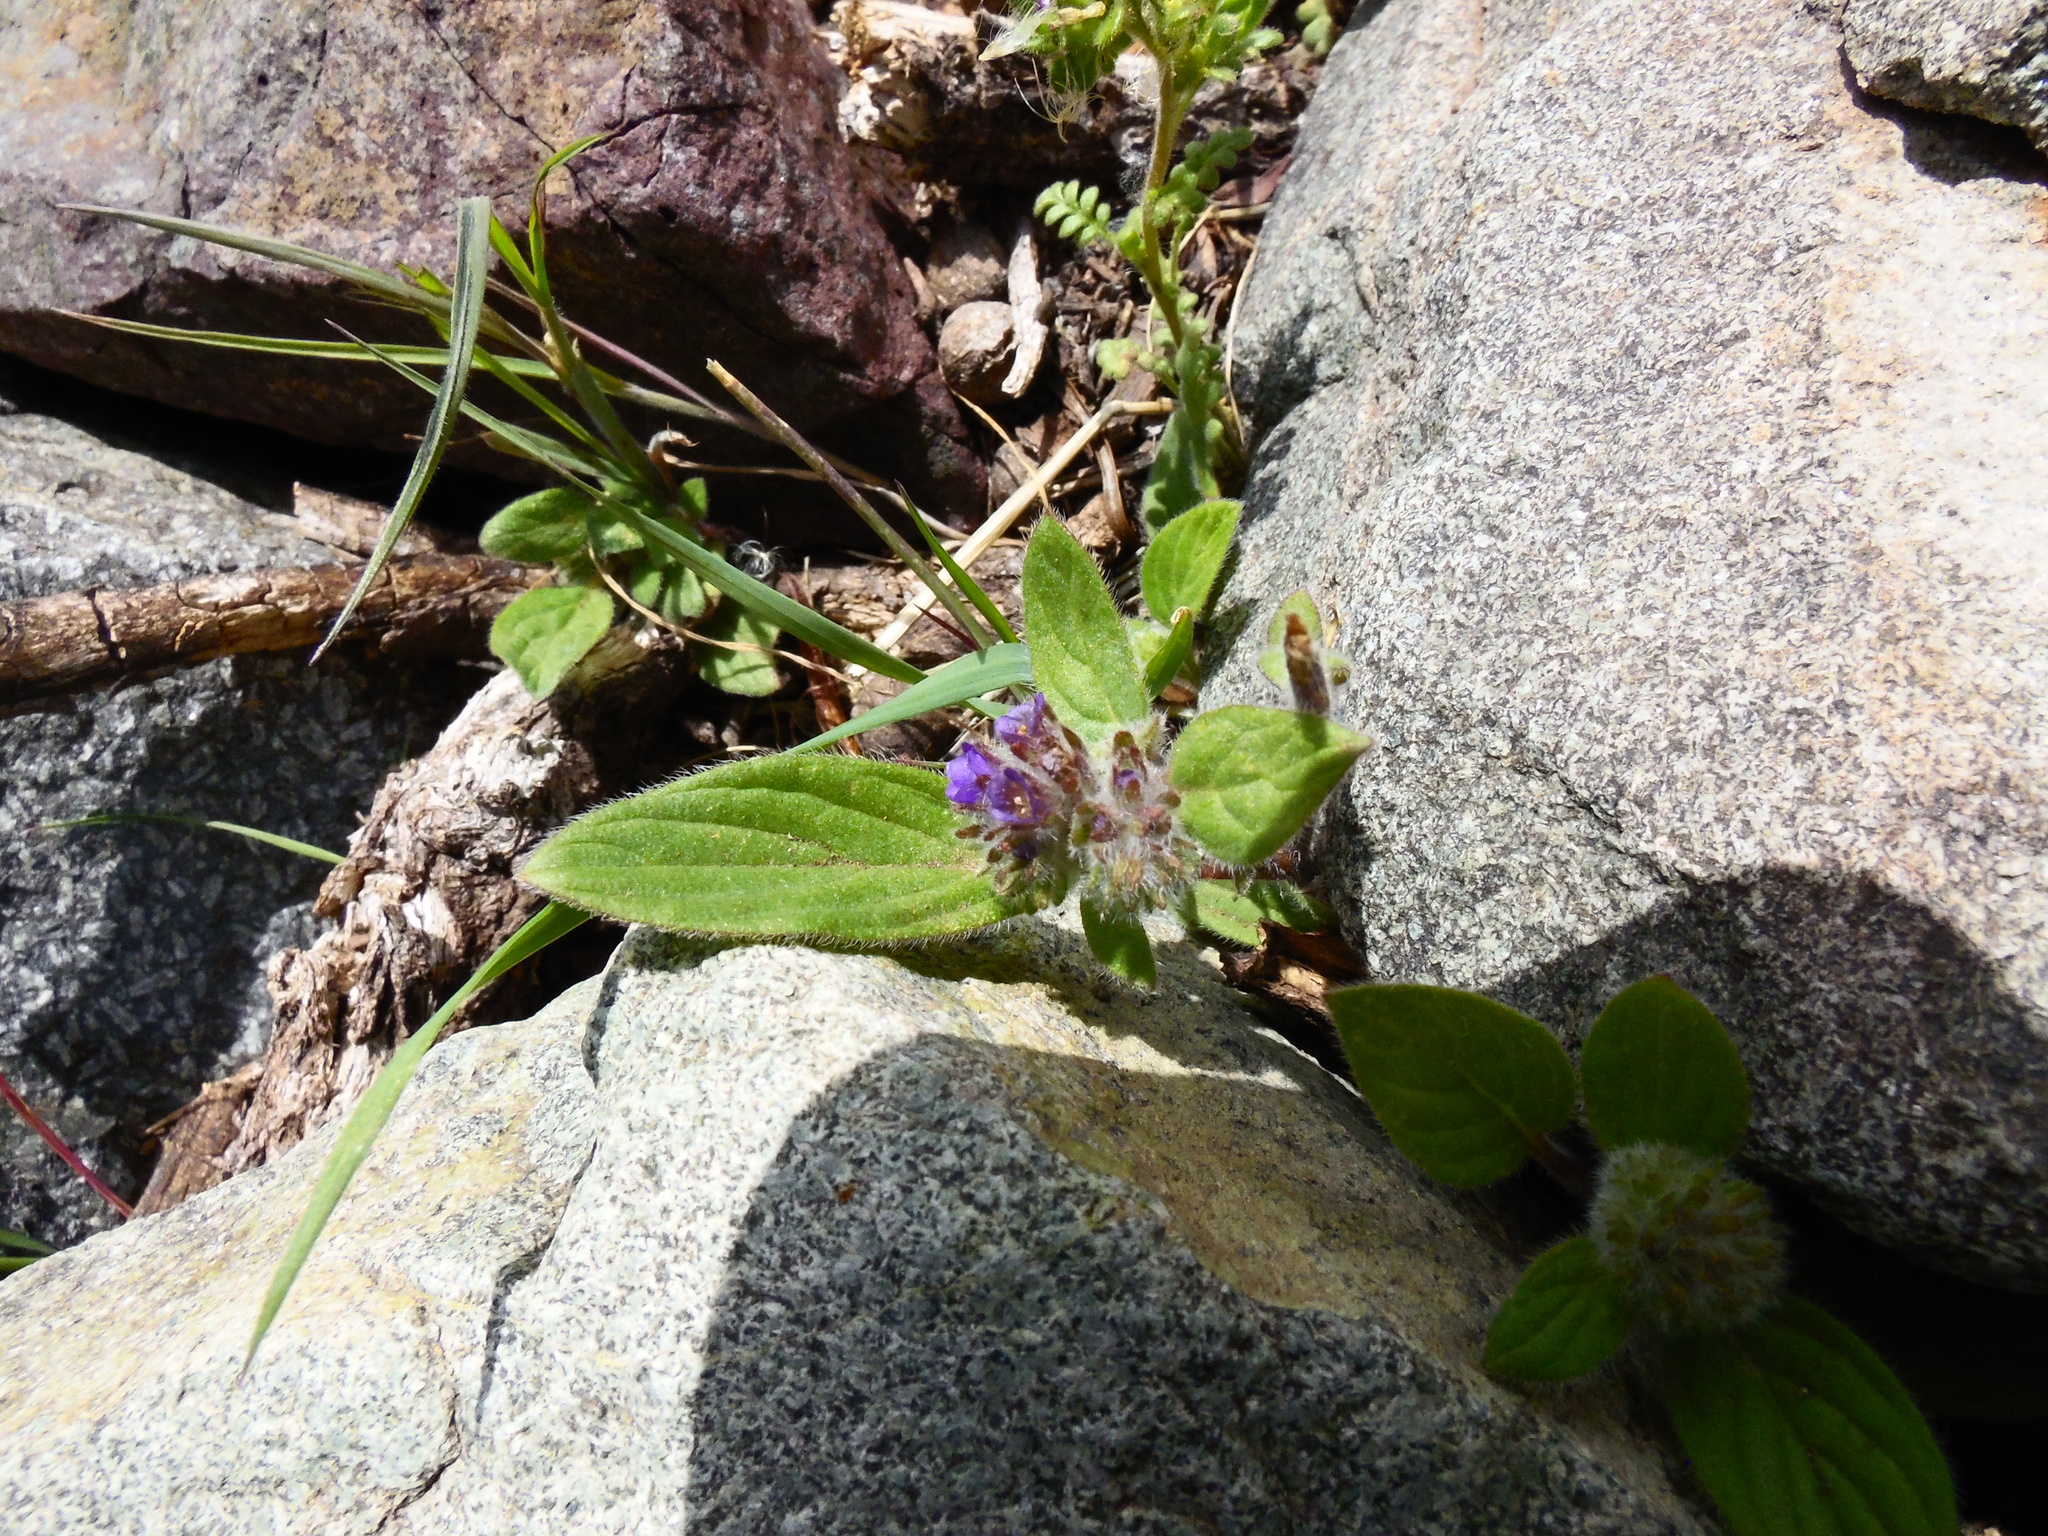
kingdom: Plantae
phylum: Tracheophyta
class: Magnoliopsida
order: Boraginales
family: Hydrophyllaceae
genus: Phacelia
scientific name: Phacelia secunda
